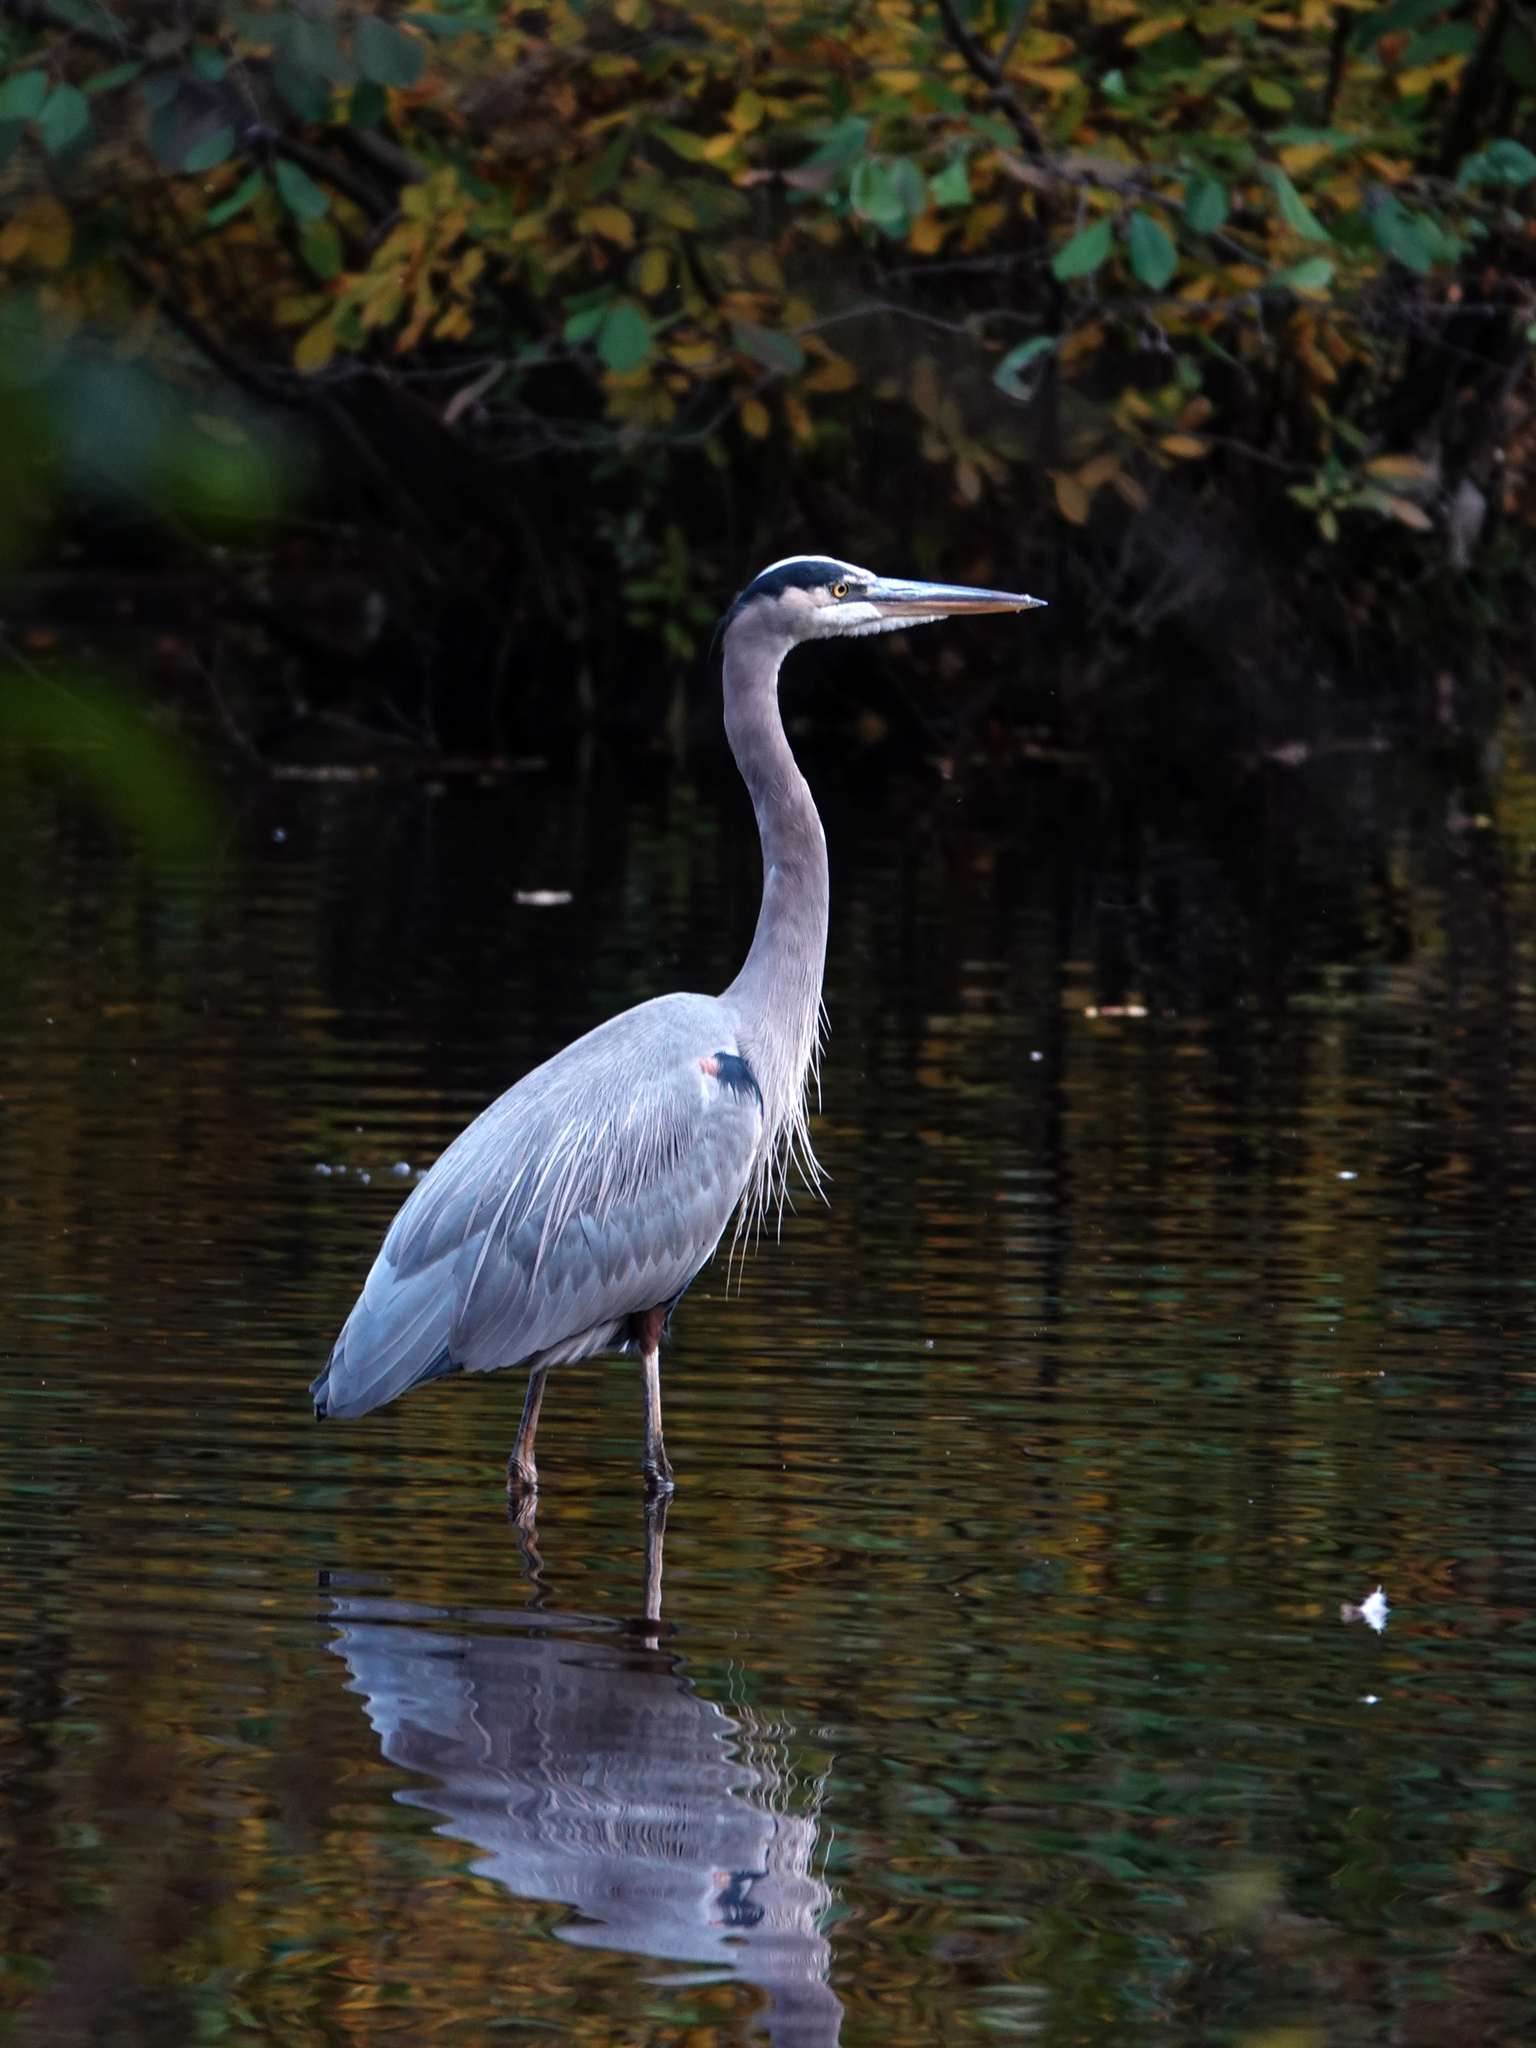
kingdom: Animalia
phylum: Chordata
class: Aves
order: Pelecaniformes
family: Ardeidae
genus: Ardea
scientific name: Ardea herodias
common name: Great blue heron
